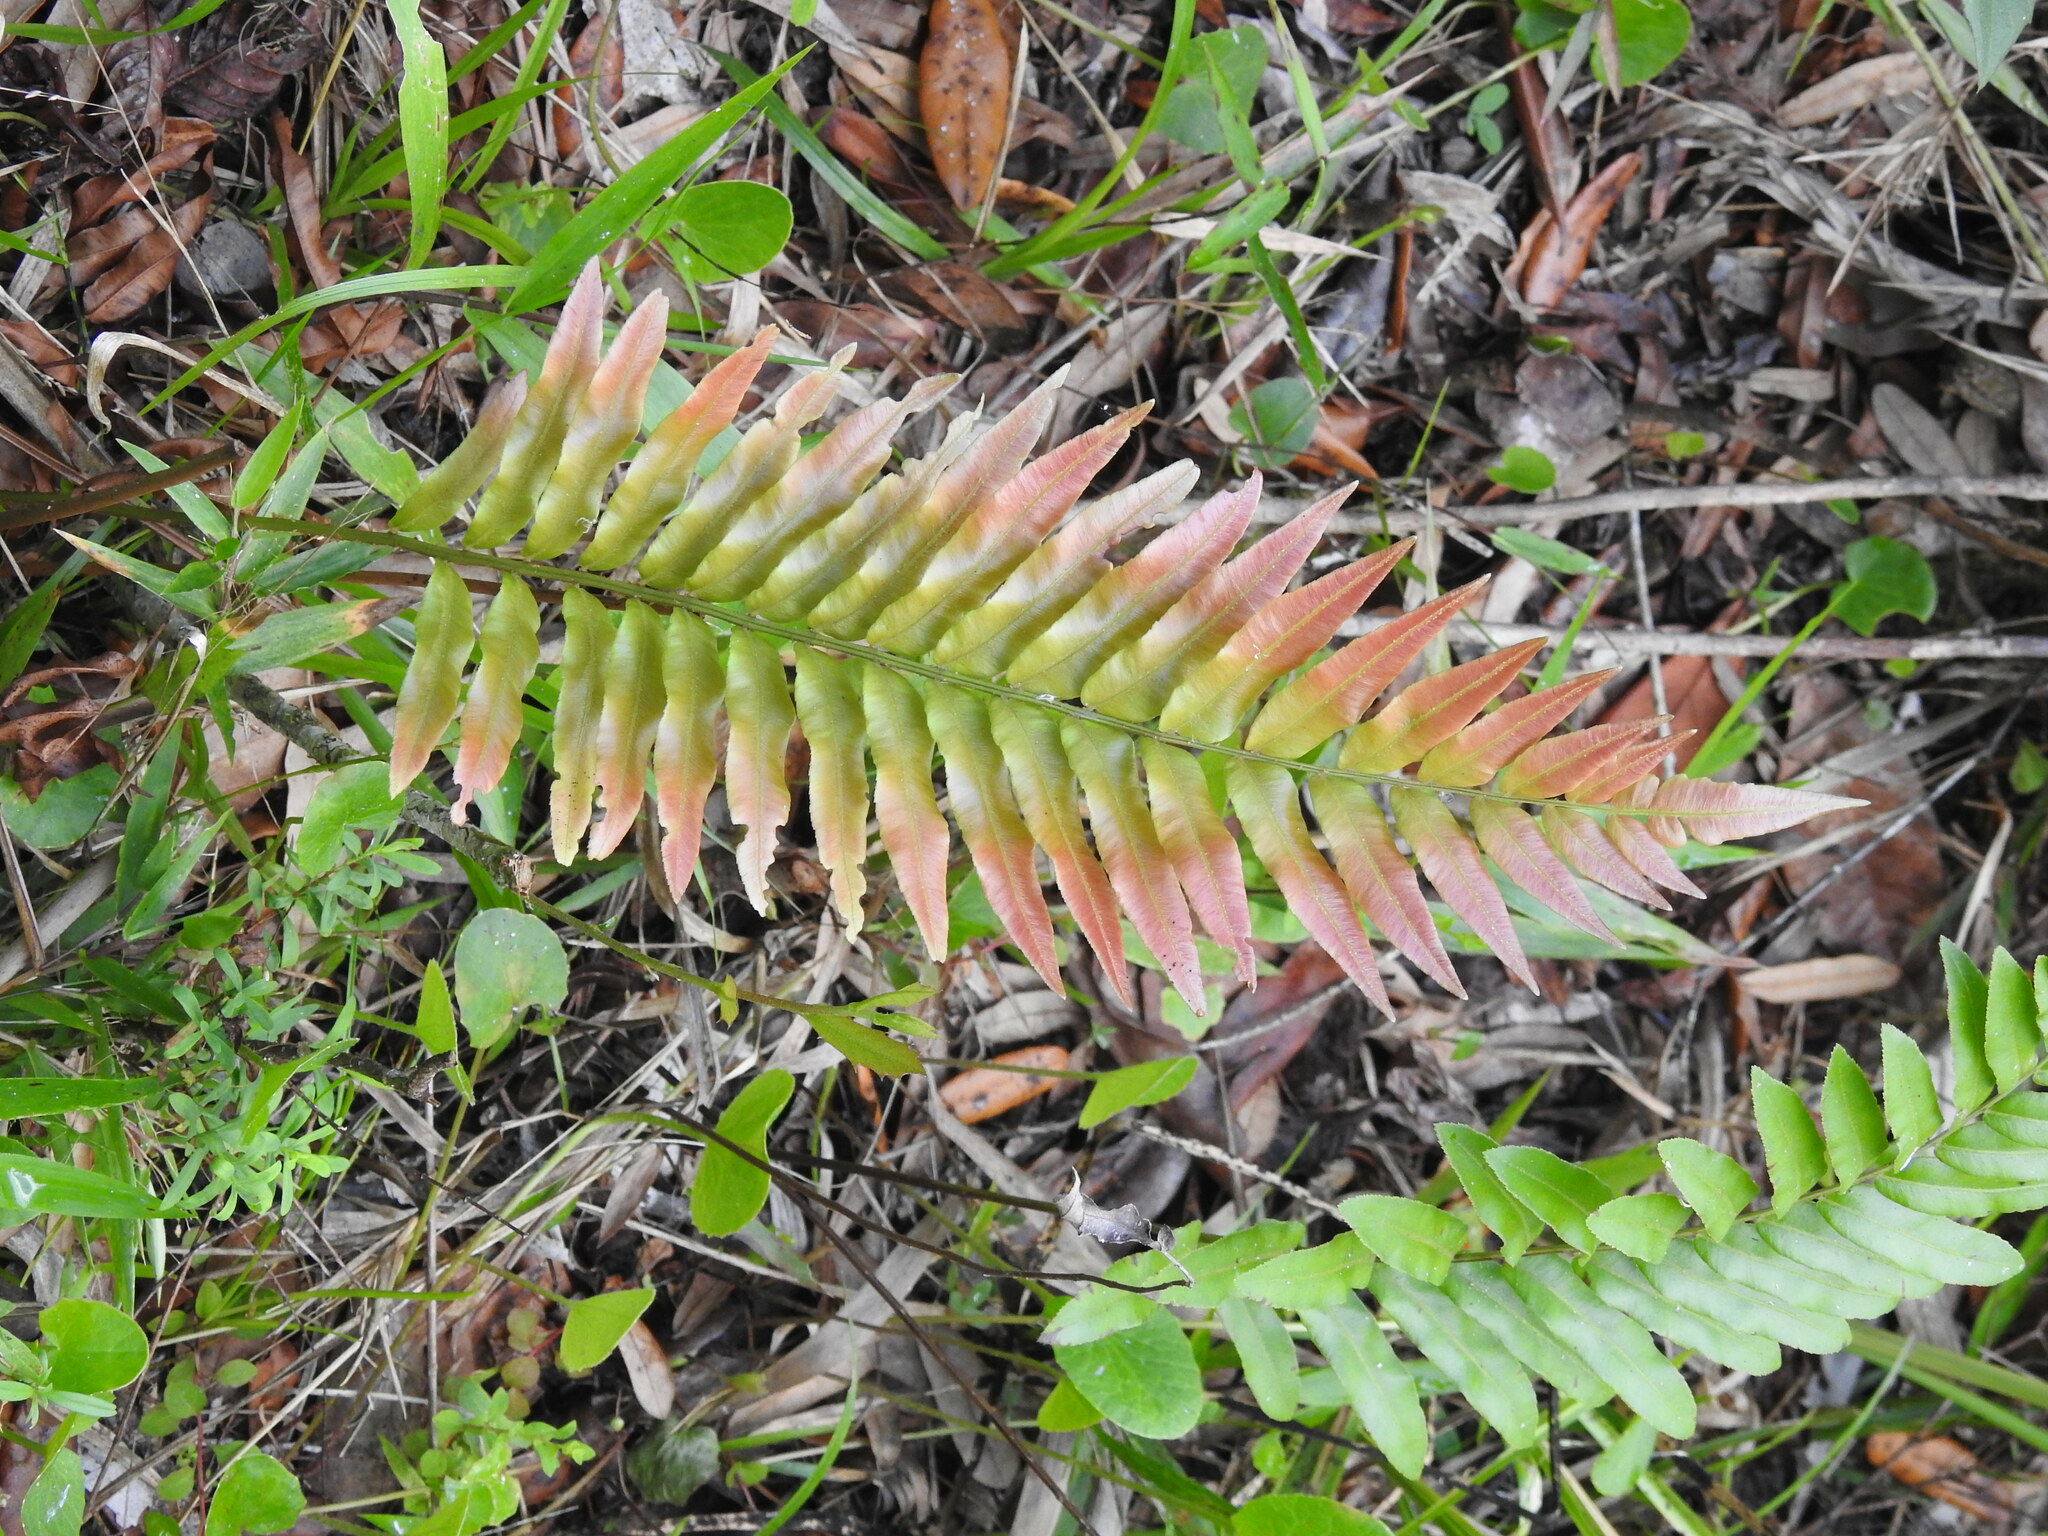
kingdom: Plantae
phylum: Tracheophyta
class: Polypodiopsida
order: Polypodiales
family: Blechnaceae
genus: Telmatoblechnum
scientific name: Telmatoblechnum serrulatum
